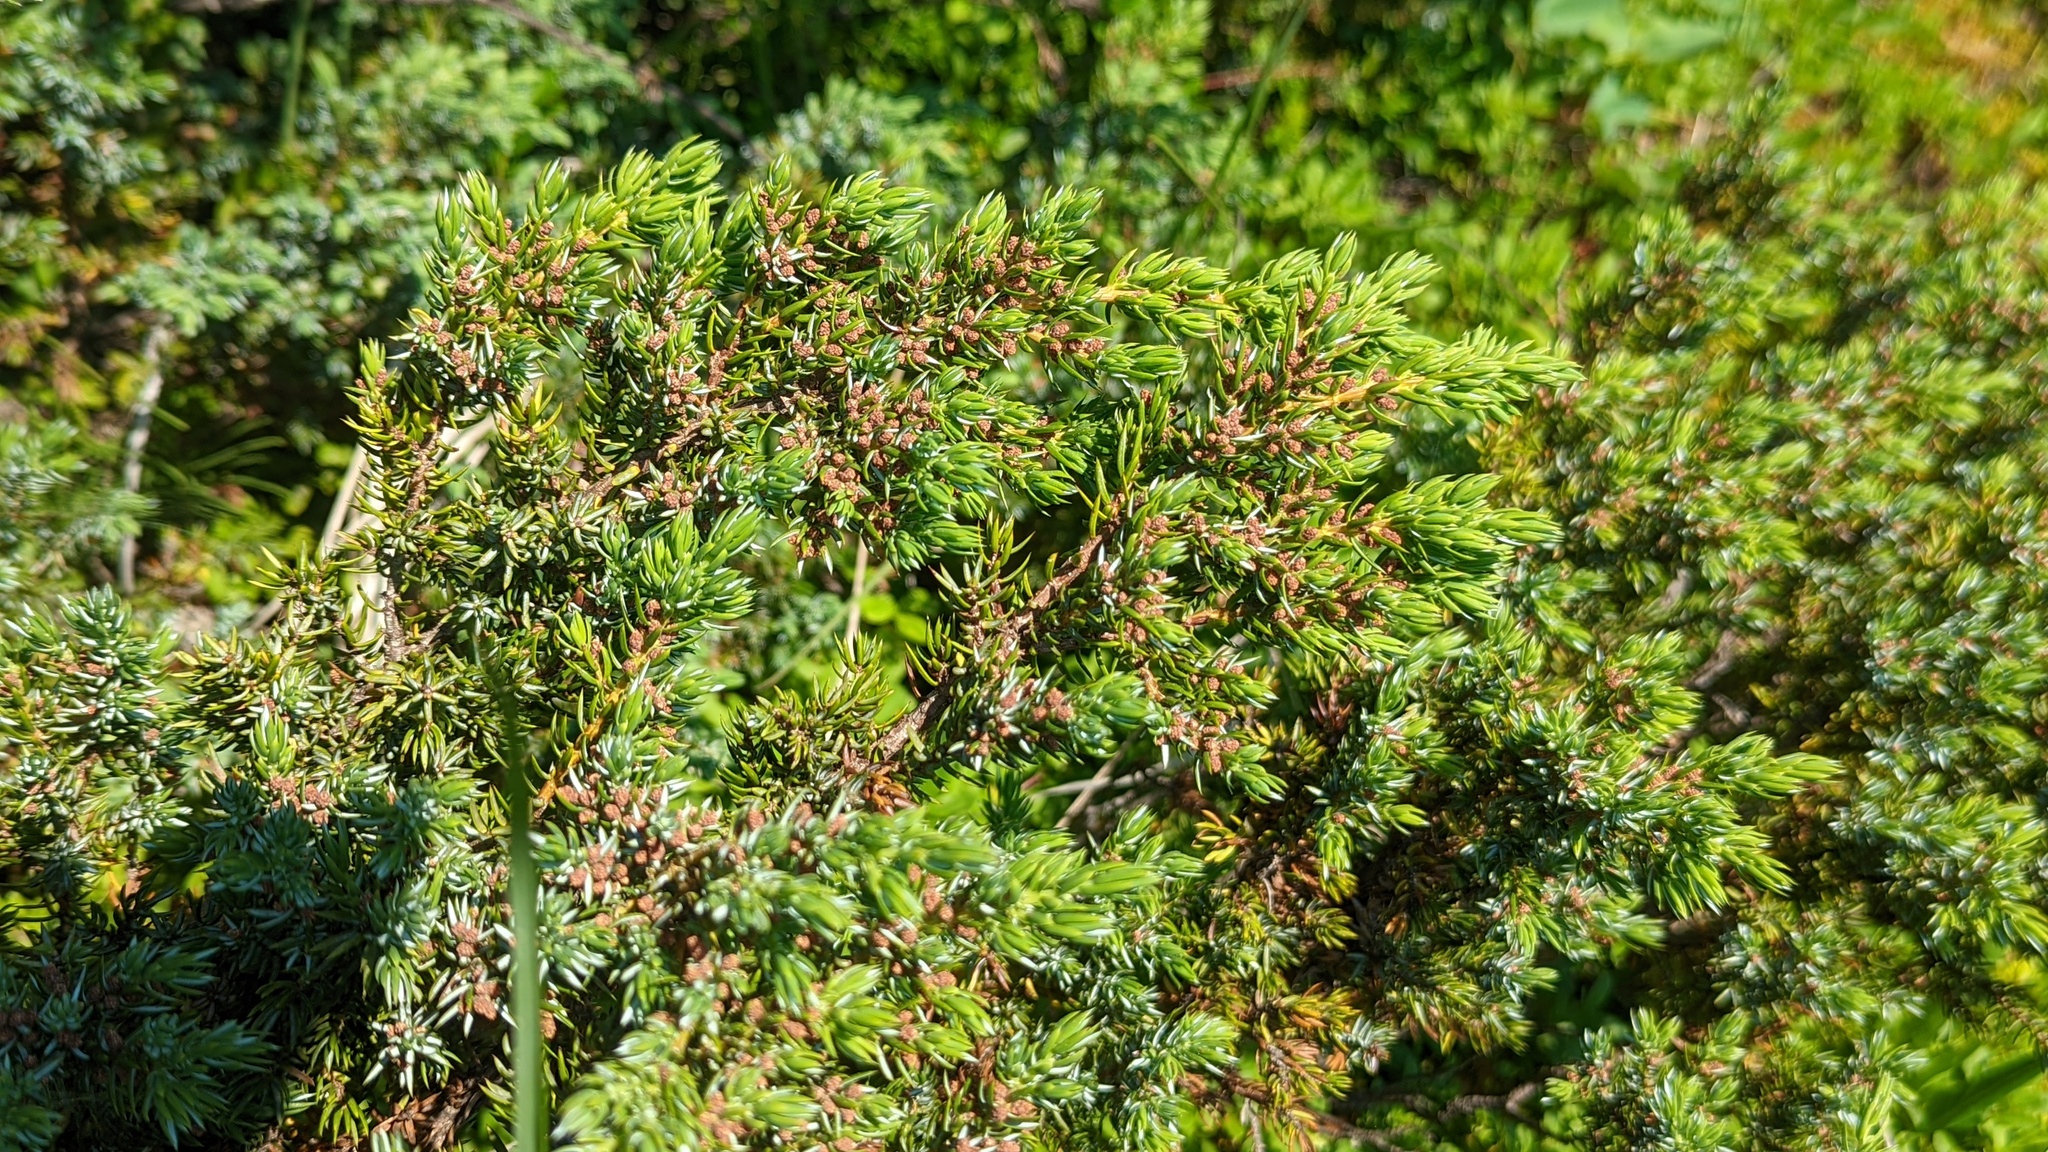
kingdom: Plantae
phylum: Tracheophyta
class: Pinopsida
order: Pinales
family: Cupressaceae
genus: Juniperus
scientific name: Juniperus communis
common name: Common juniper
